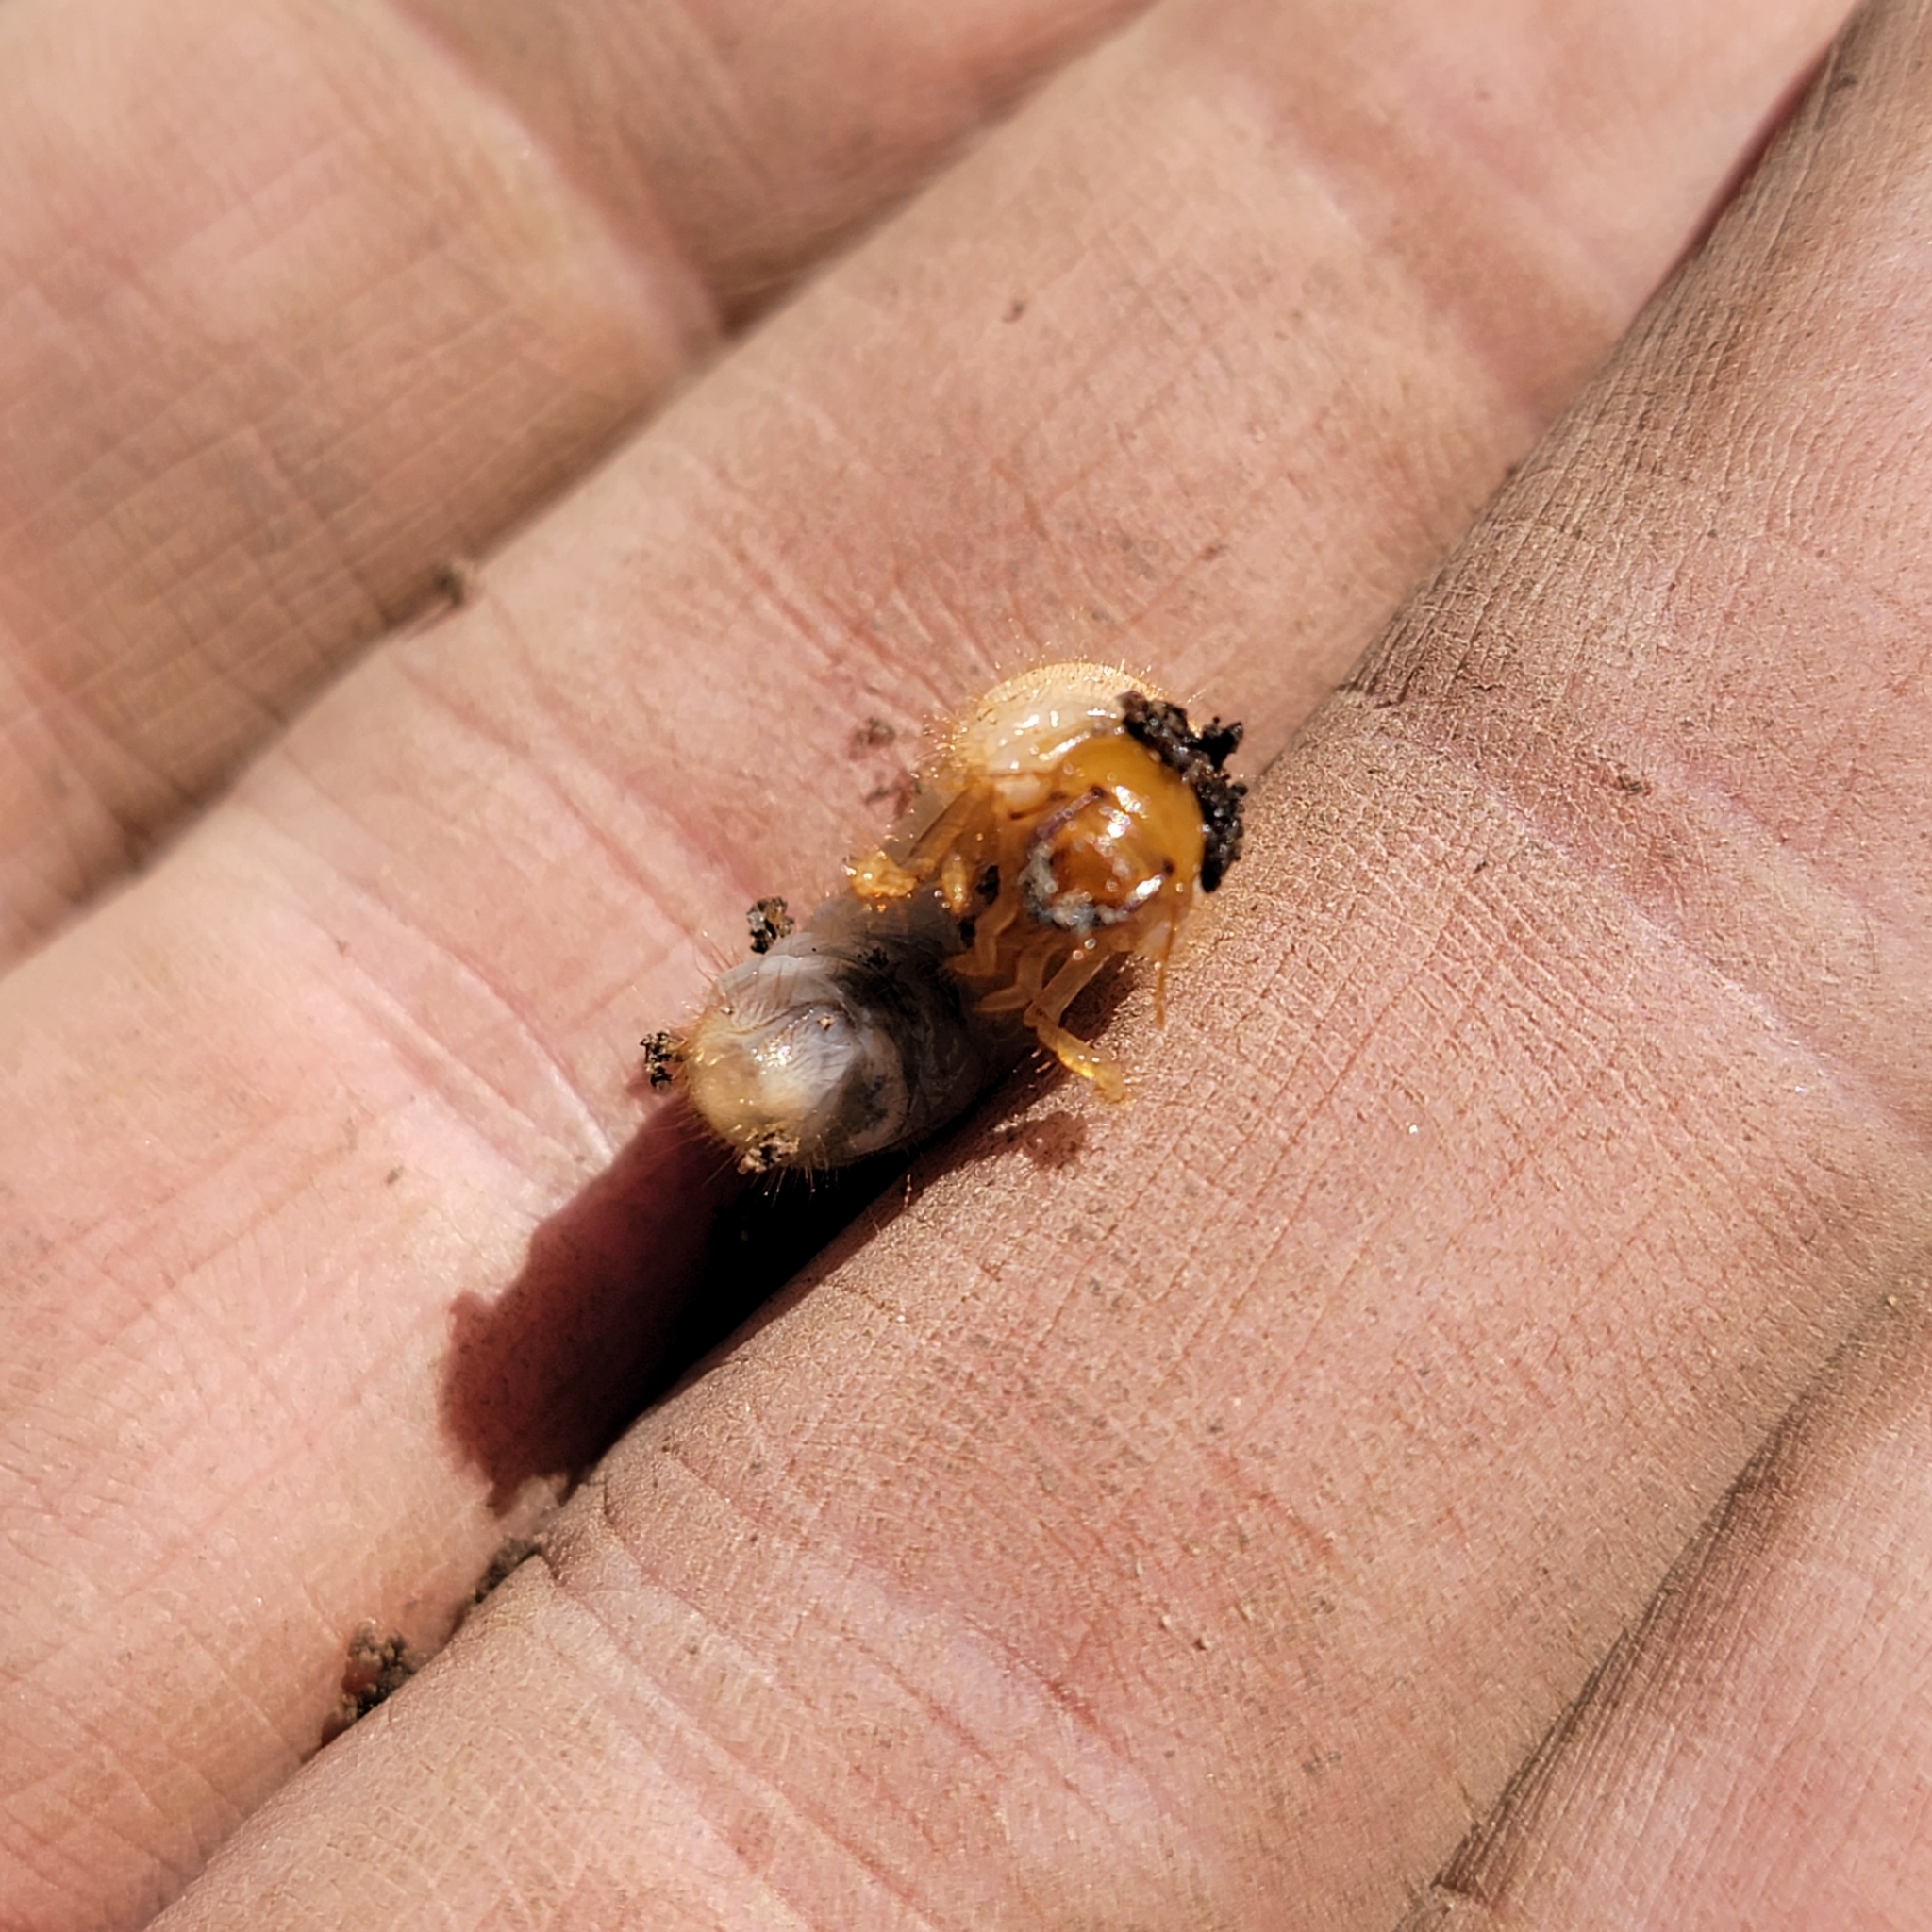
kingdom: Animalia
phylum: Arthropoda
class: Insecta
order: Coleoptera
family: Scarabaeidae
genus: Amphimallon
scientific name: Amphimallon majale
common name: European chafer
